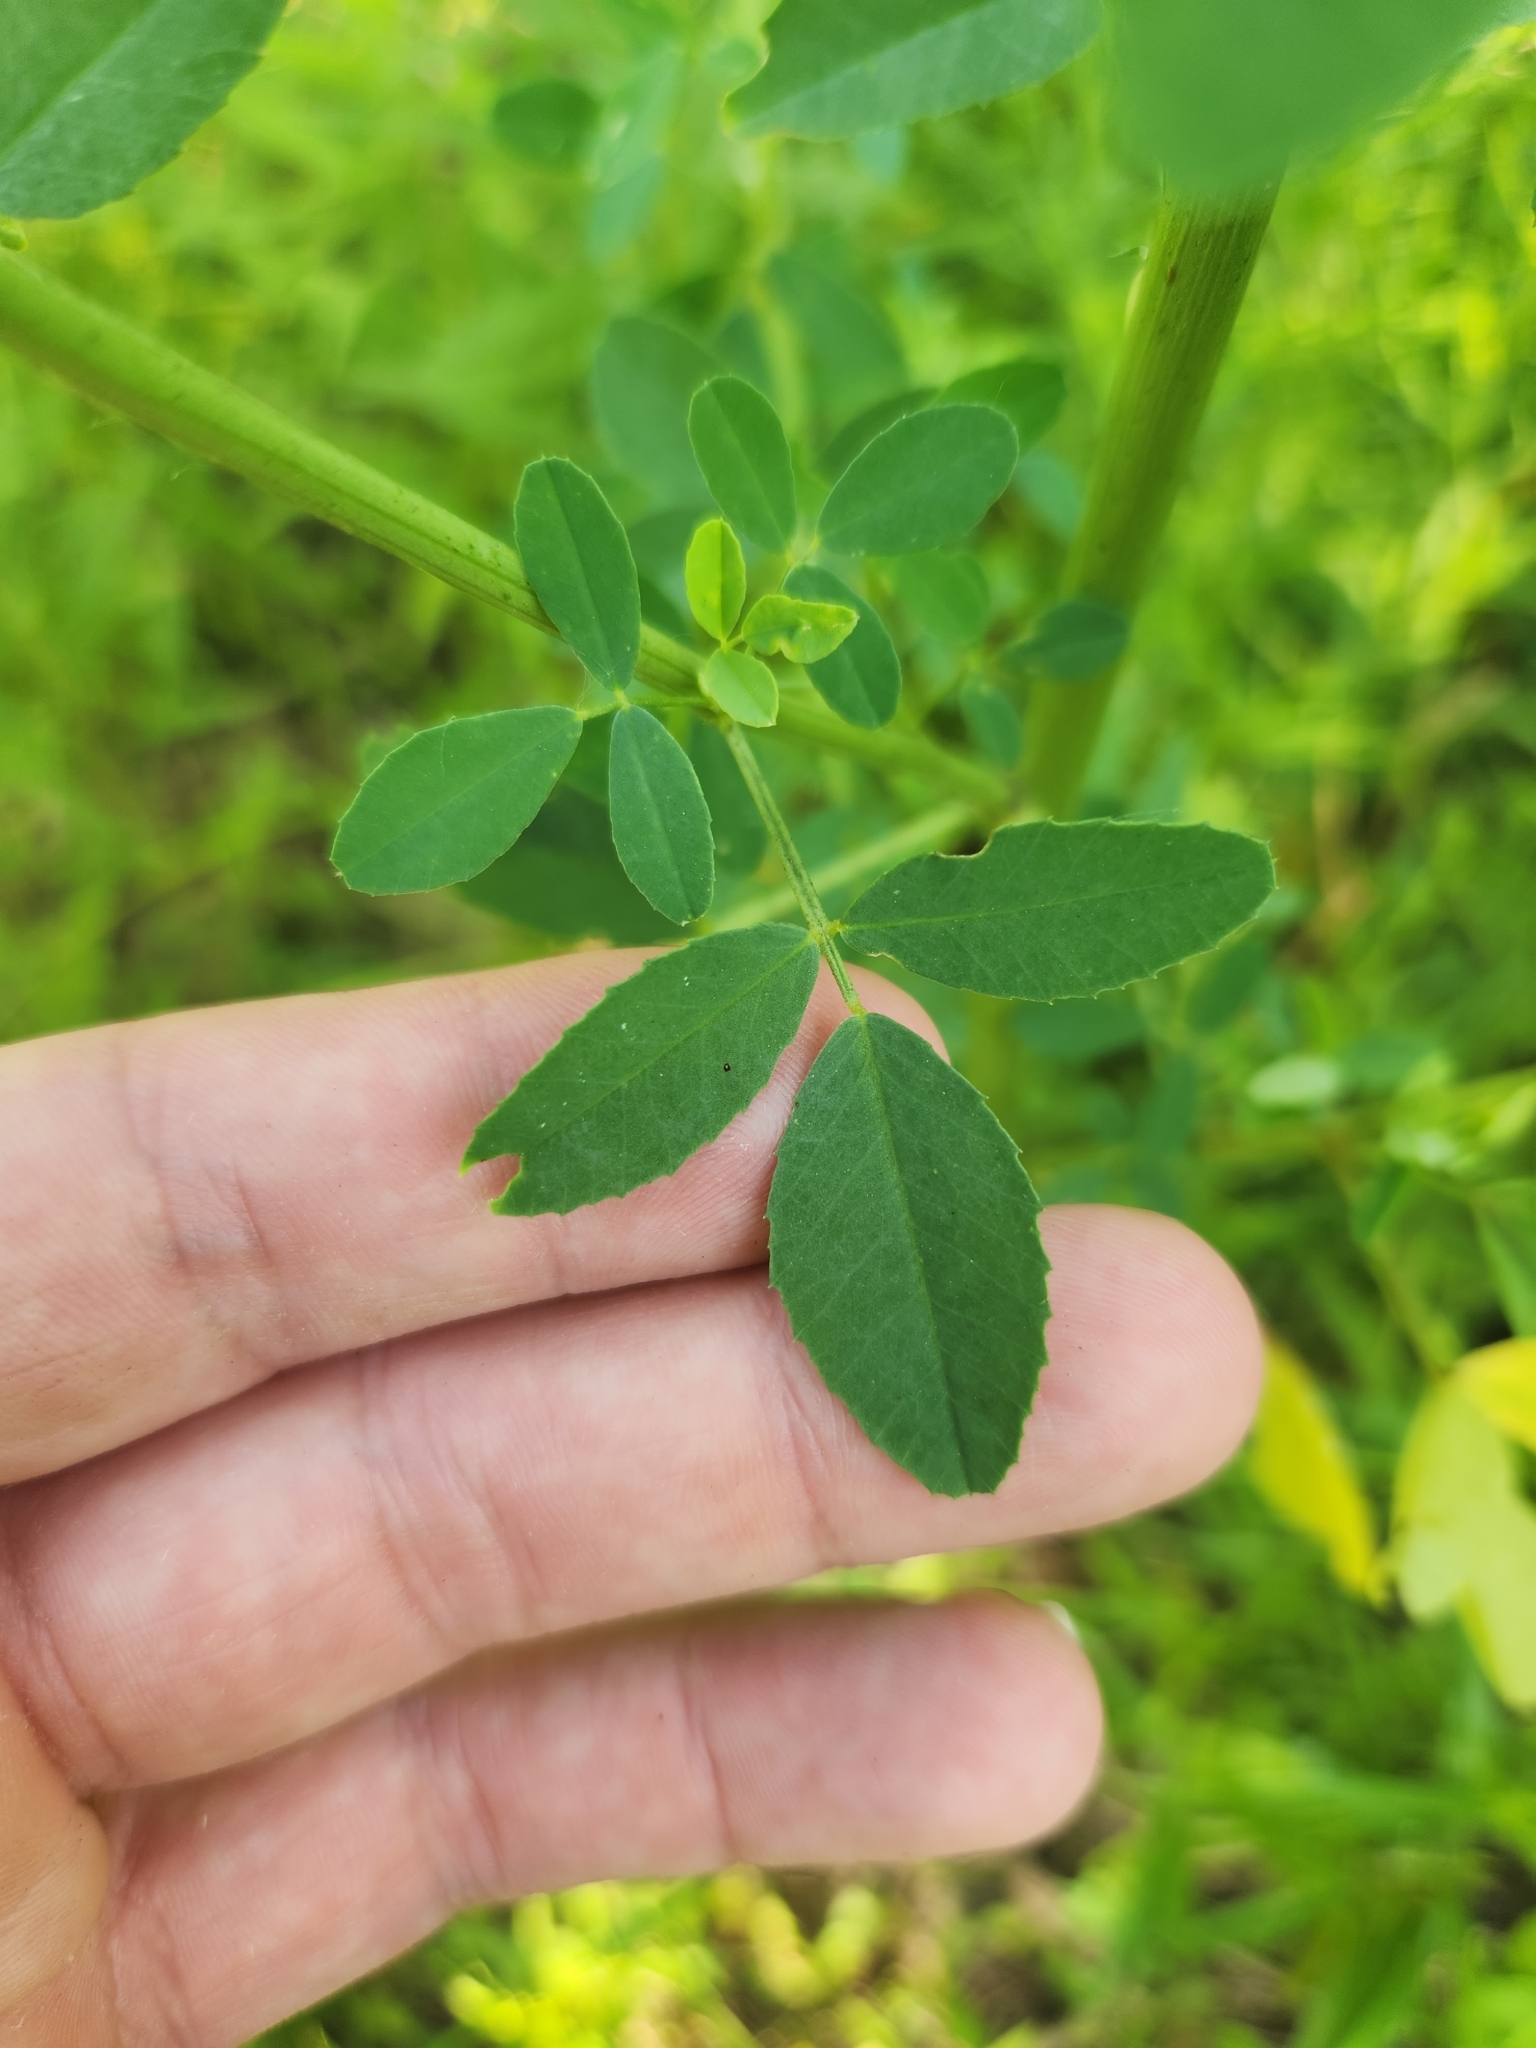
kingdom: Plantae
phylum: Tracheophyta
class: Magnoliopsida
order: Fabales
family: Fabaceae
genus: Melilotus
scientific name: Melilotus albus
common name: White melilot
